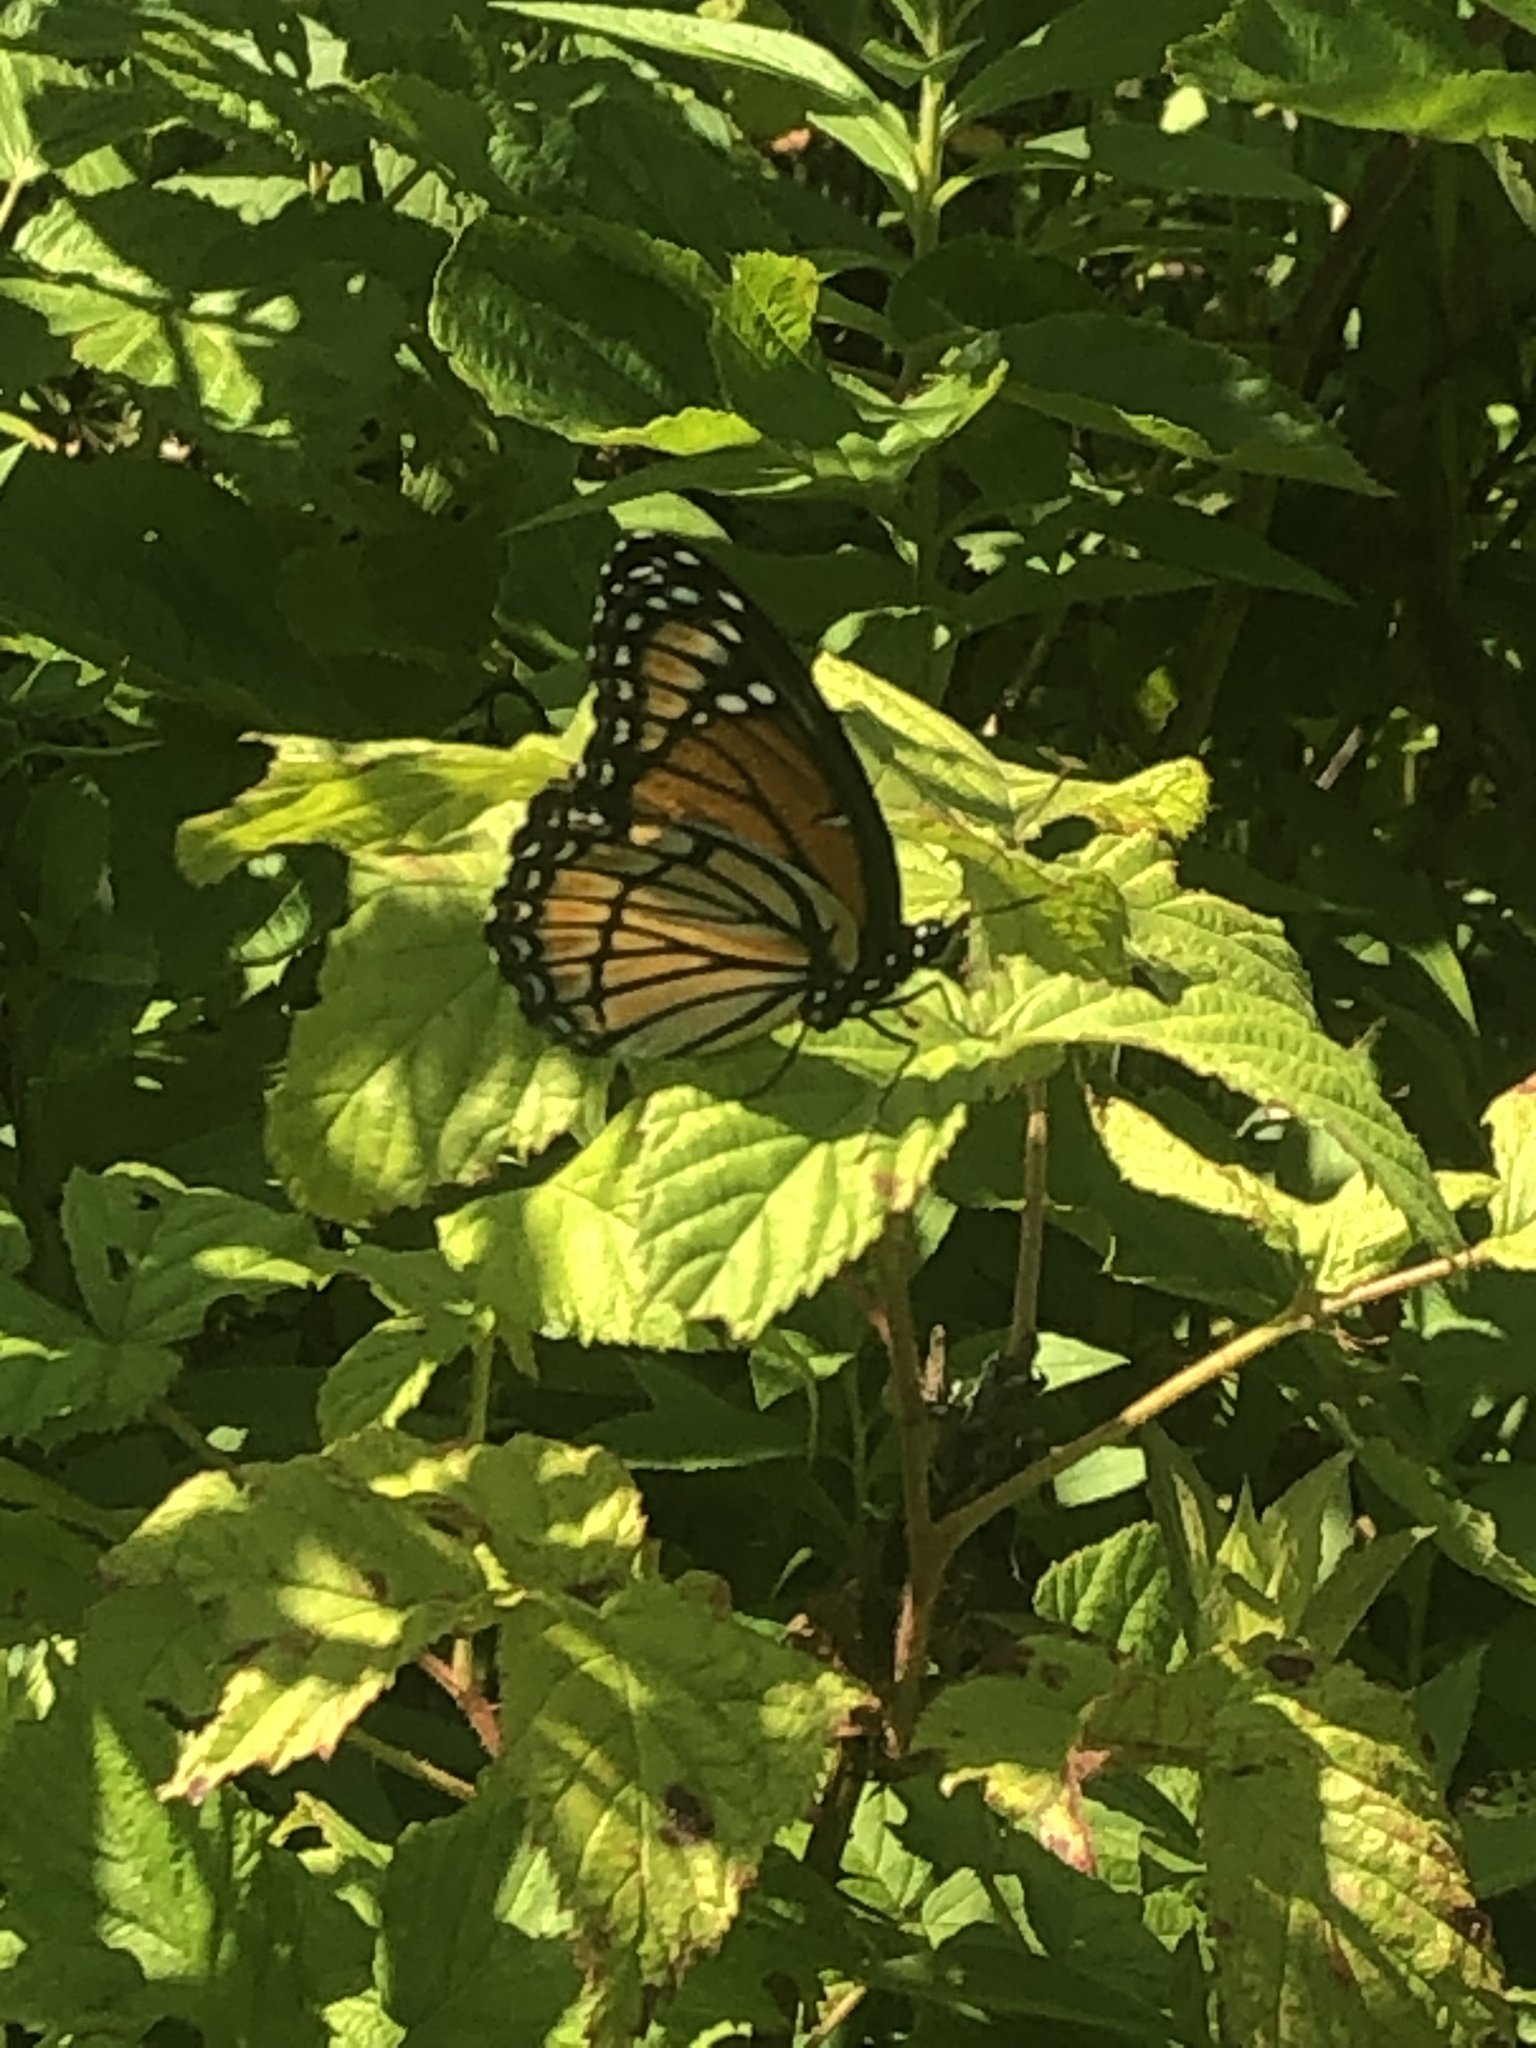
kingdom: Animalia
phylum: Arthropoda
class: Insecta
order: Lepidoptera
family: Nymphalidae
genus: Limenitis
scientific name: Limenitis archippus
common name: Viceroy
